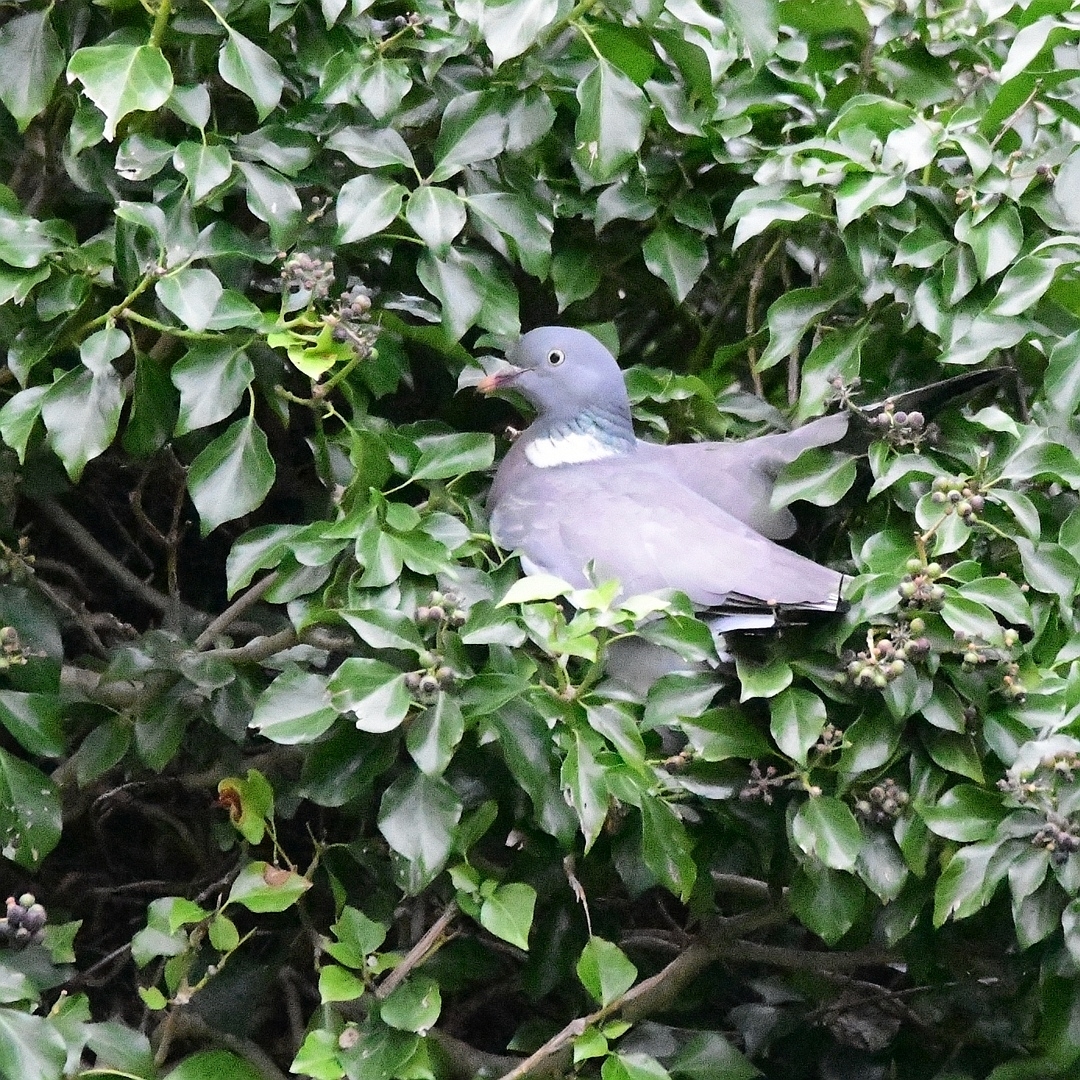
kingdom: Animalia
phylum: Chordata
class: Aves
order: Columbiformes
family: Columbidae
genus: Columba
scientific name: Columba palumbus
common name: Common wood pigeon
